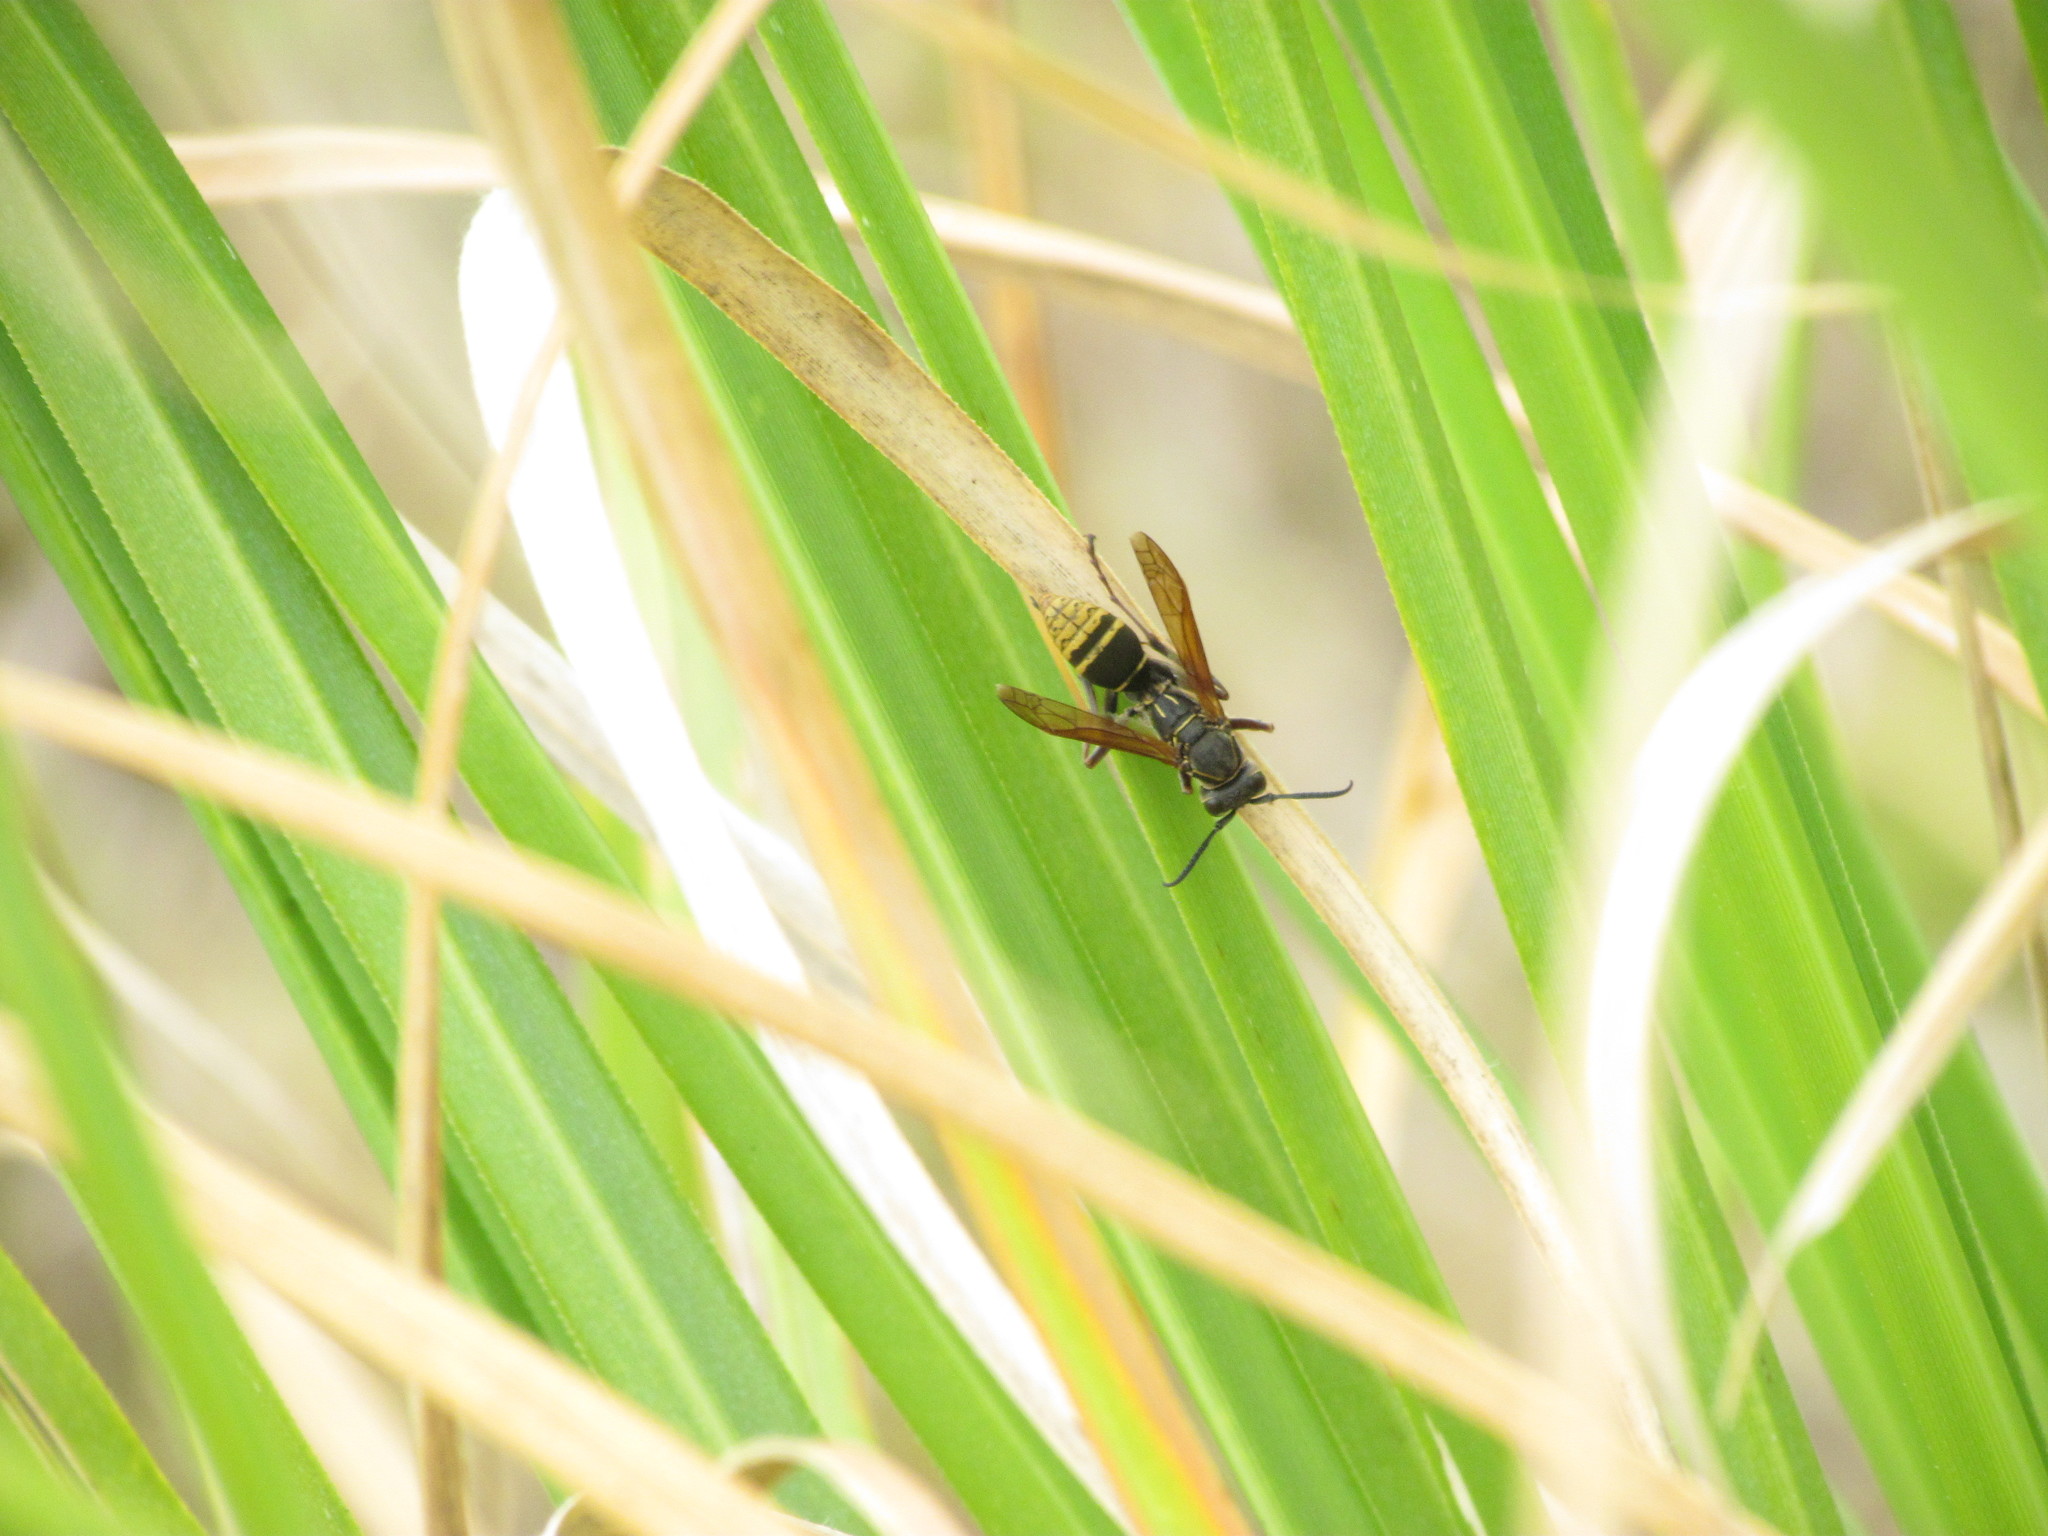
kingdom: Animalia
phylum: Arthropoda
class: Insecta
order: Hymenoptera
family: Eumenidae
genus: Polistes
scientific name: Polistes cinerascens
